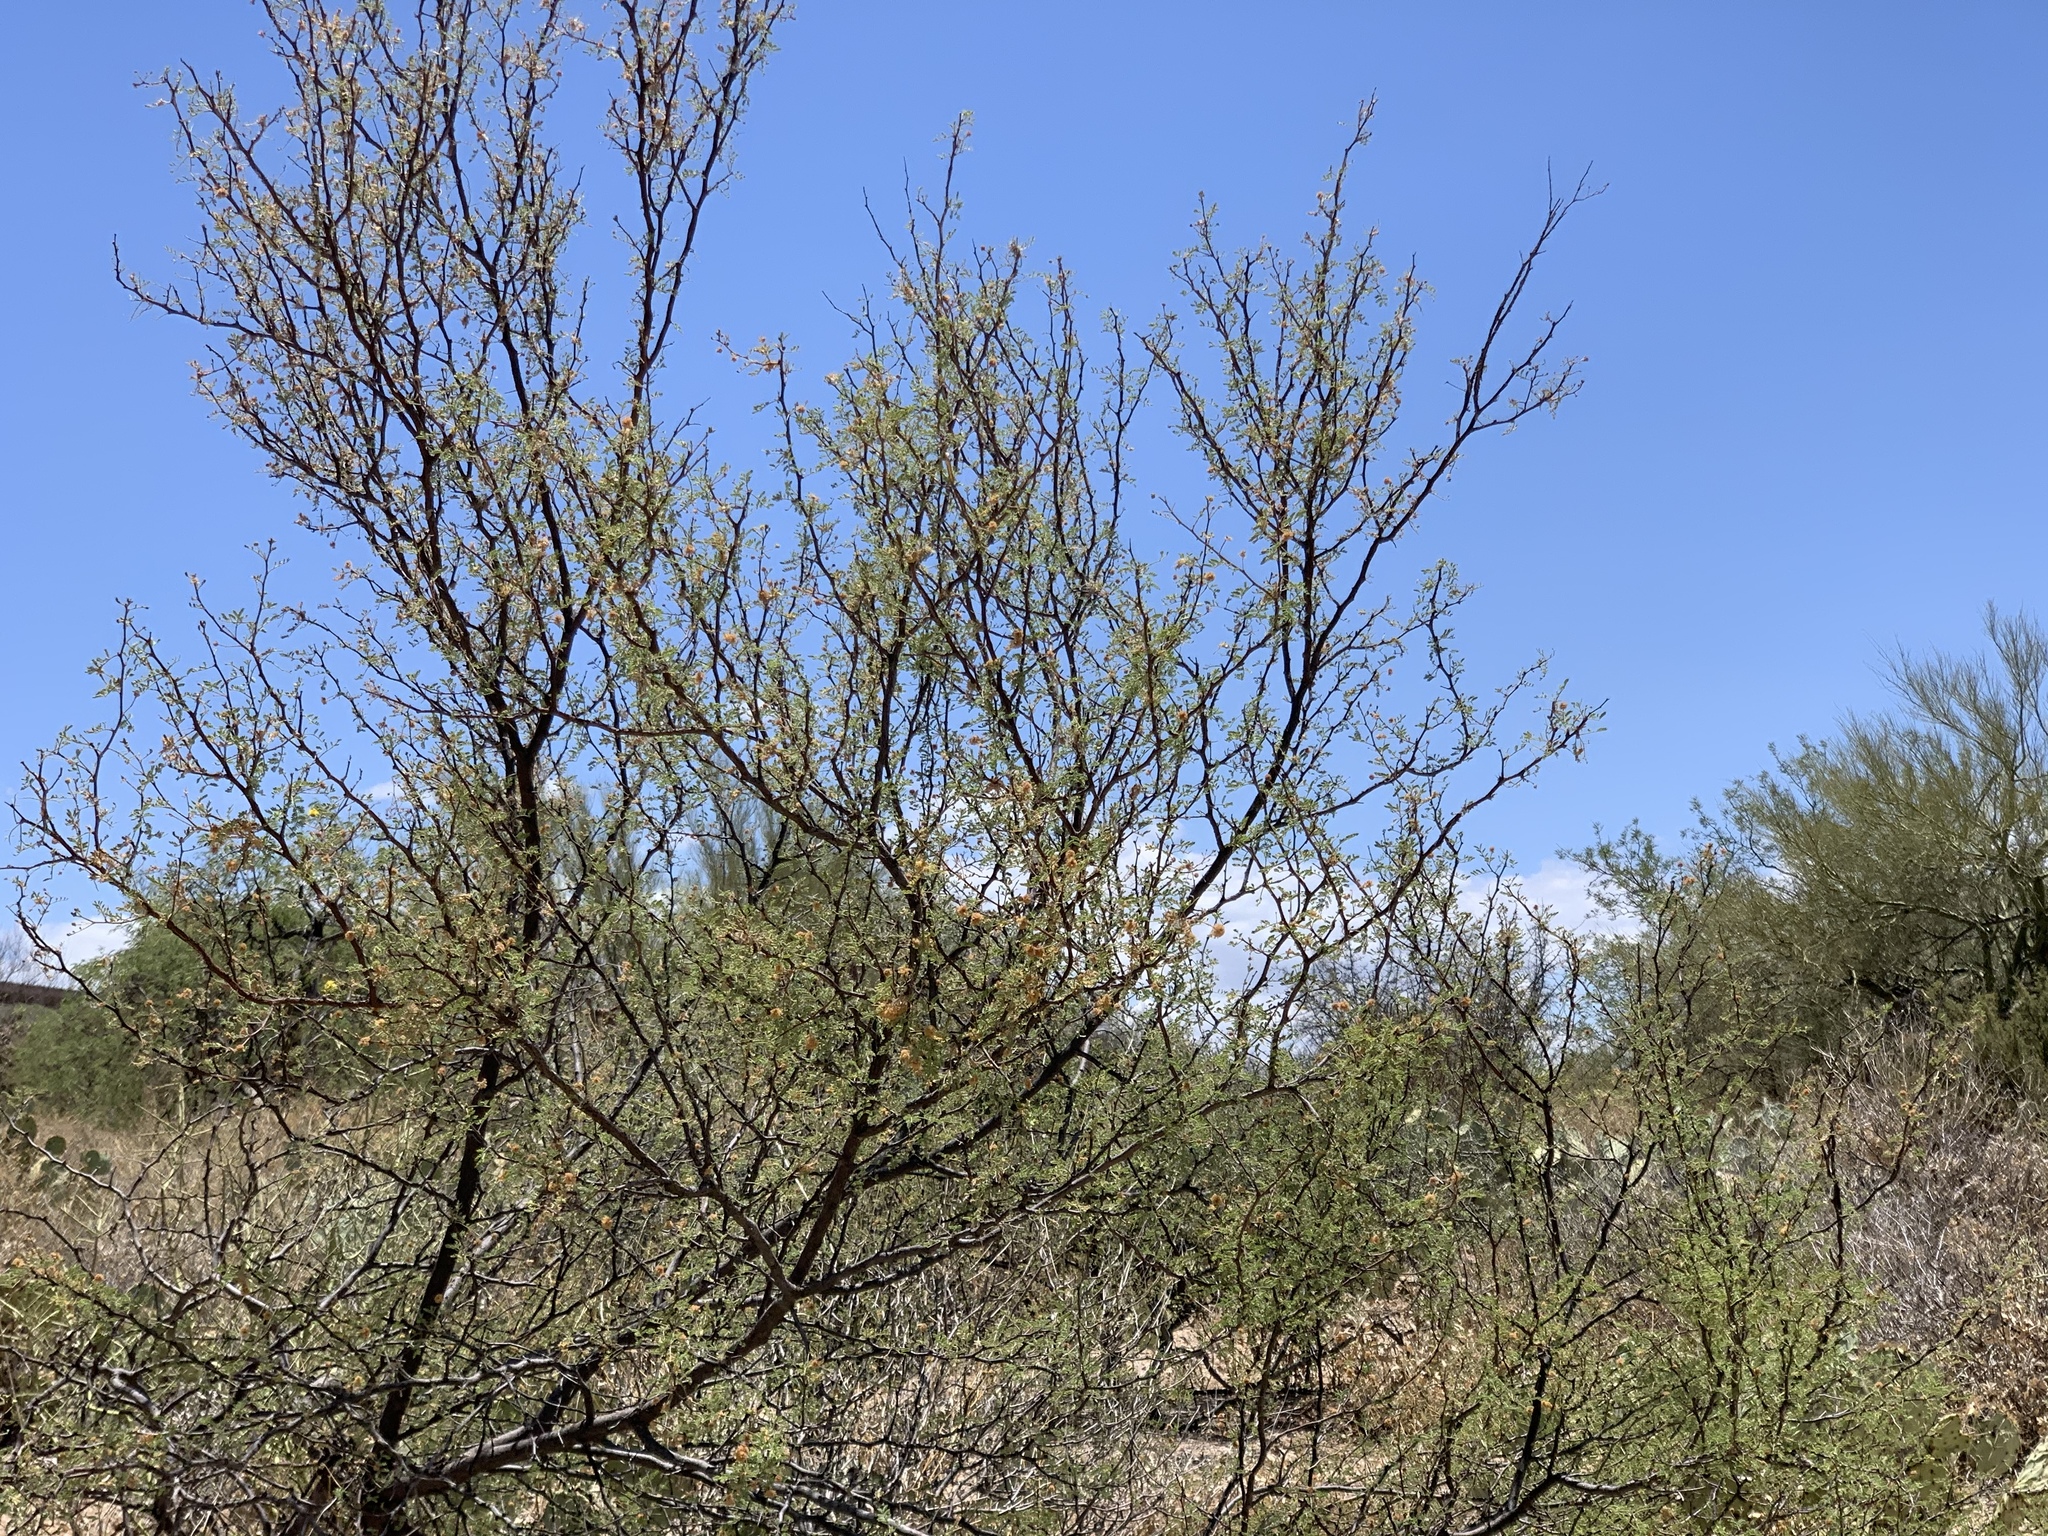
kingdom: Plantae
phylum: Tracheophyta
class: Magnoliopsida
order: Fabales
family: Fabaceae
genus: Vachellia
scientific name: Vachellia constricta
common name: Mescat acacia
